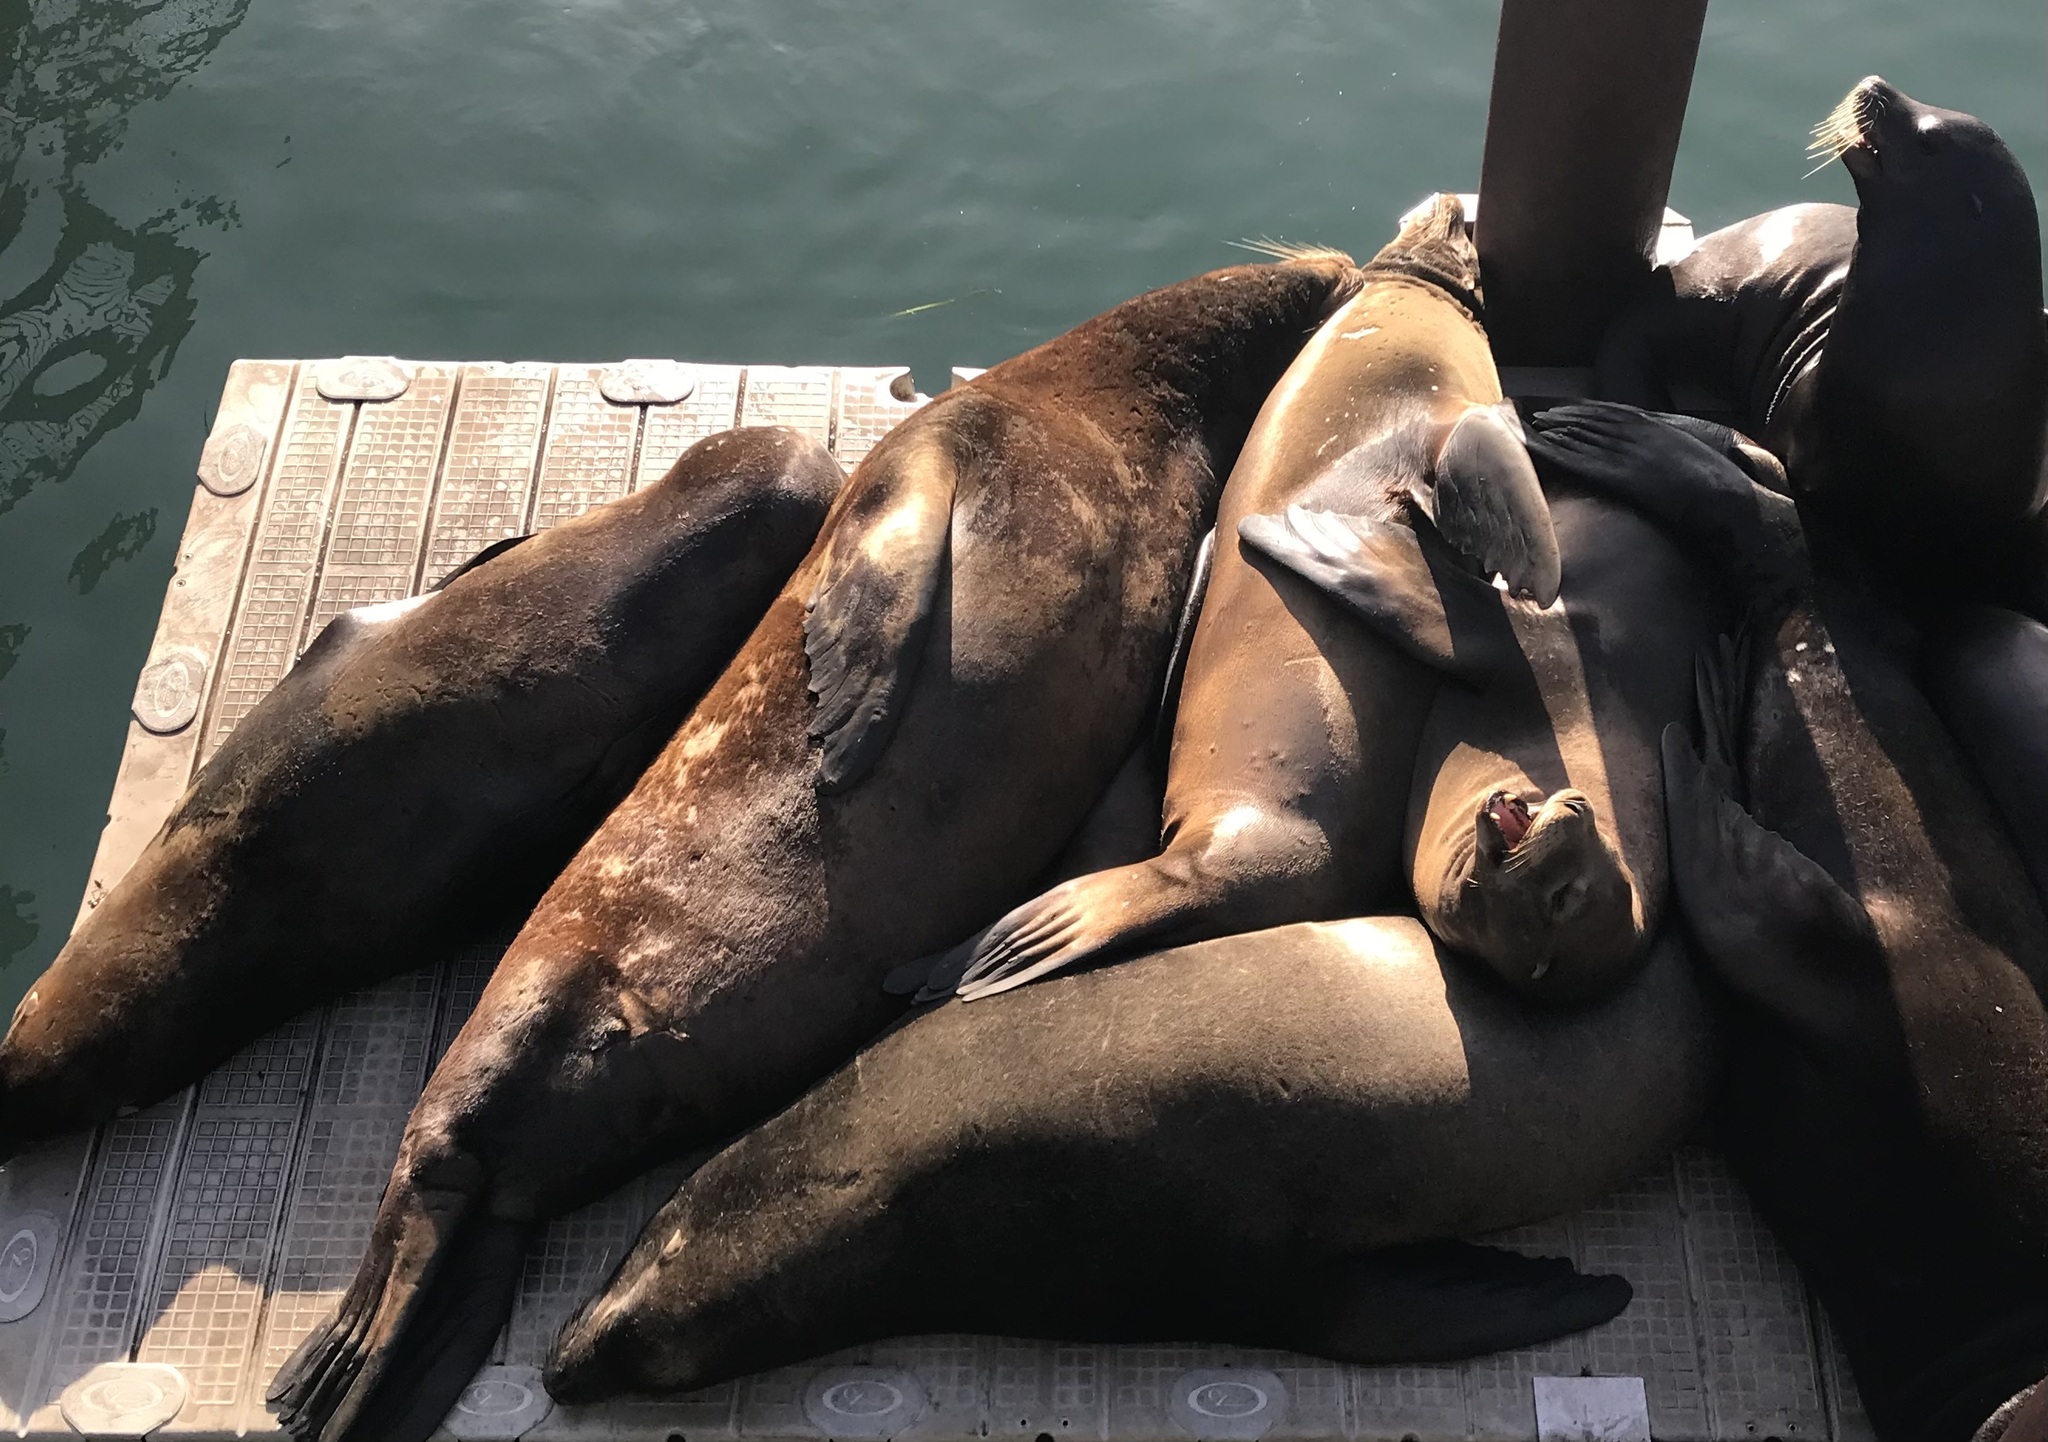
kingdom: Animalia
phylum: Chordata
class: Mammalia
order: Carnivora
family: Otariidae
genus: Zalophus
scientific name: Zalophus californianus
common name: California sea lion
